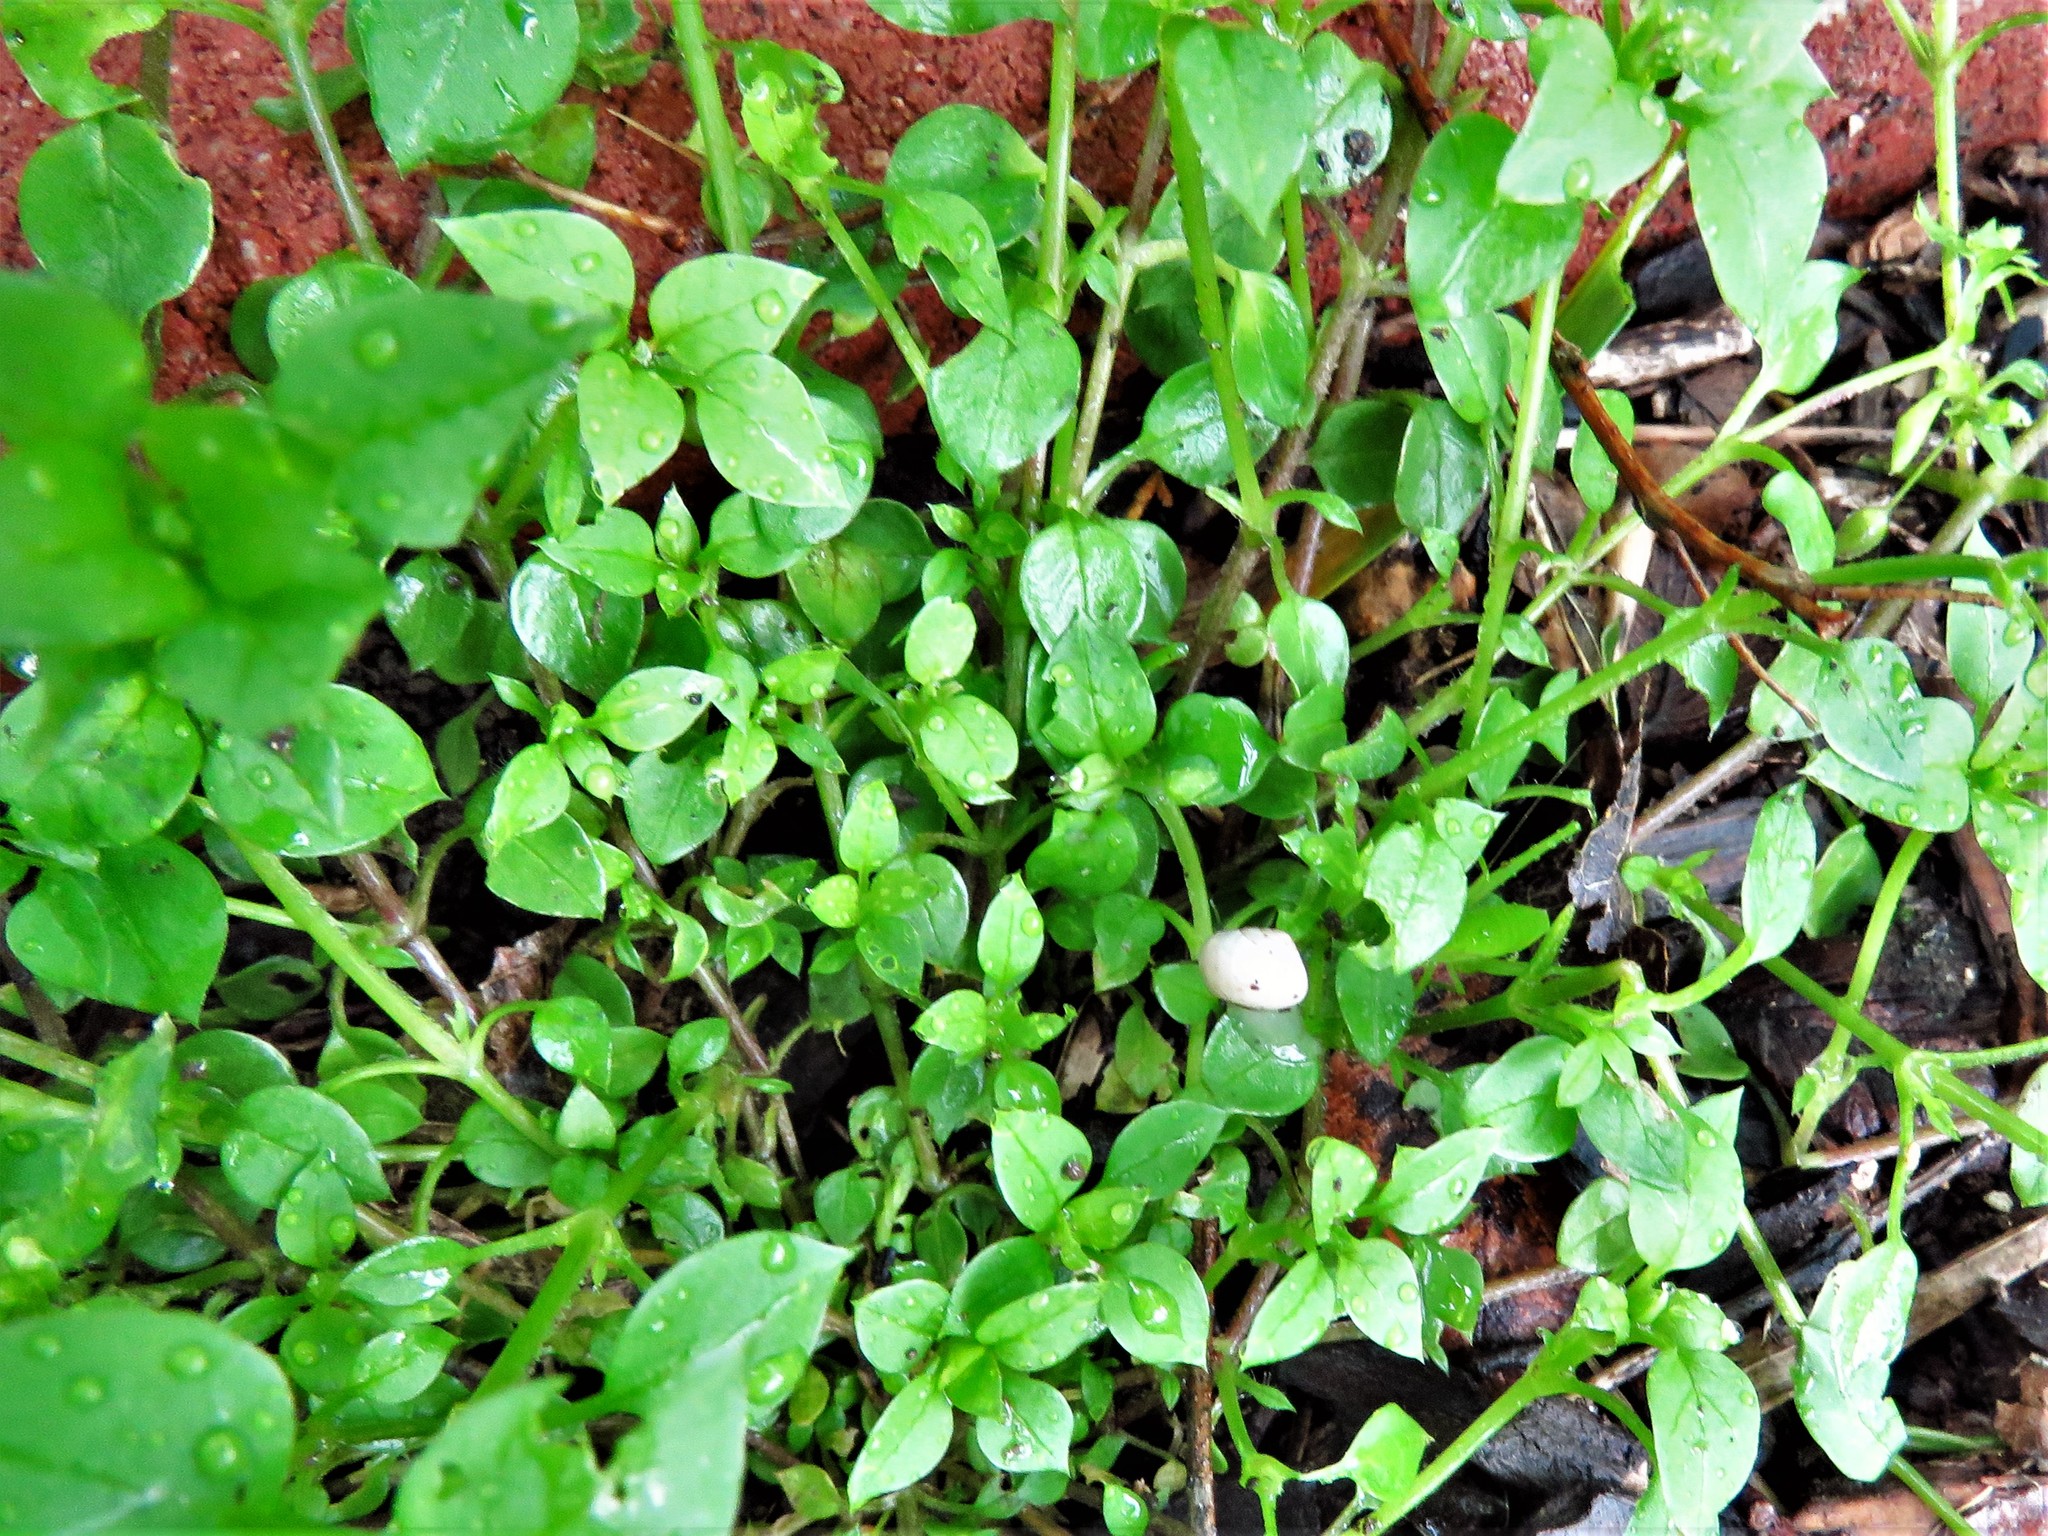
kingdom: Plantae
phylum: Tracheophyta
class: Magnoliopsida
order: Caryophyllales
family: Caryophyllaceae
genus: Stellaria
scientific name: Stellaria media
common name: Common chickweed
